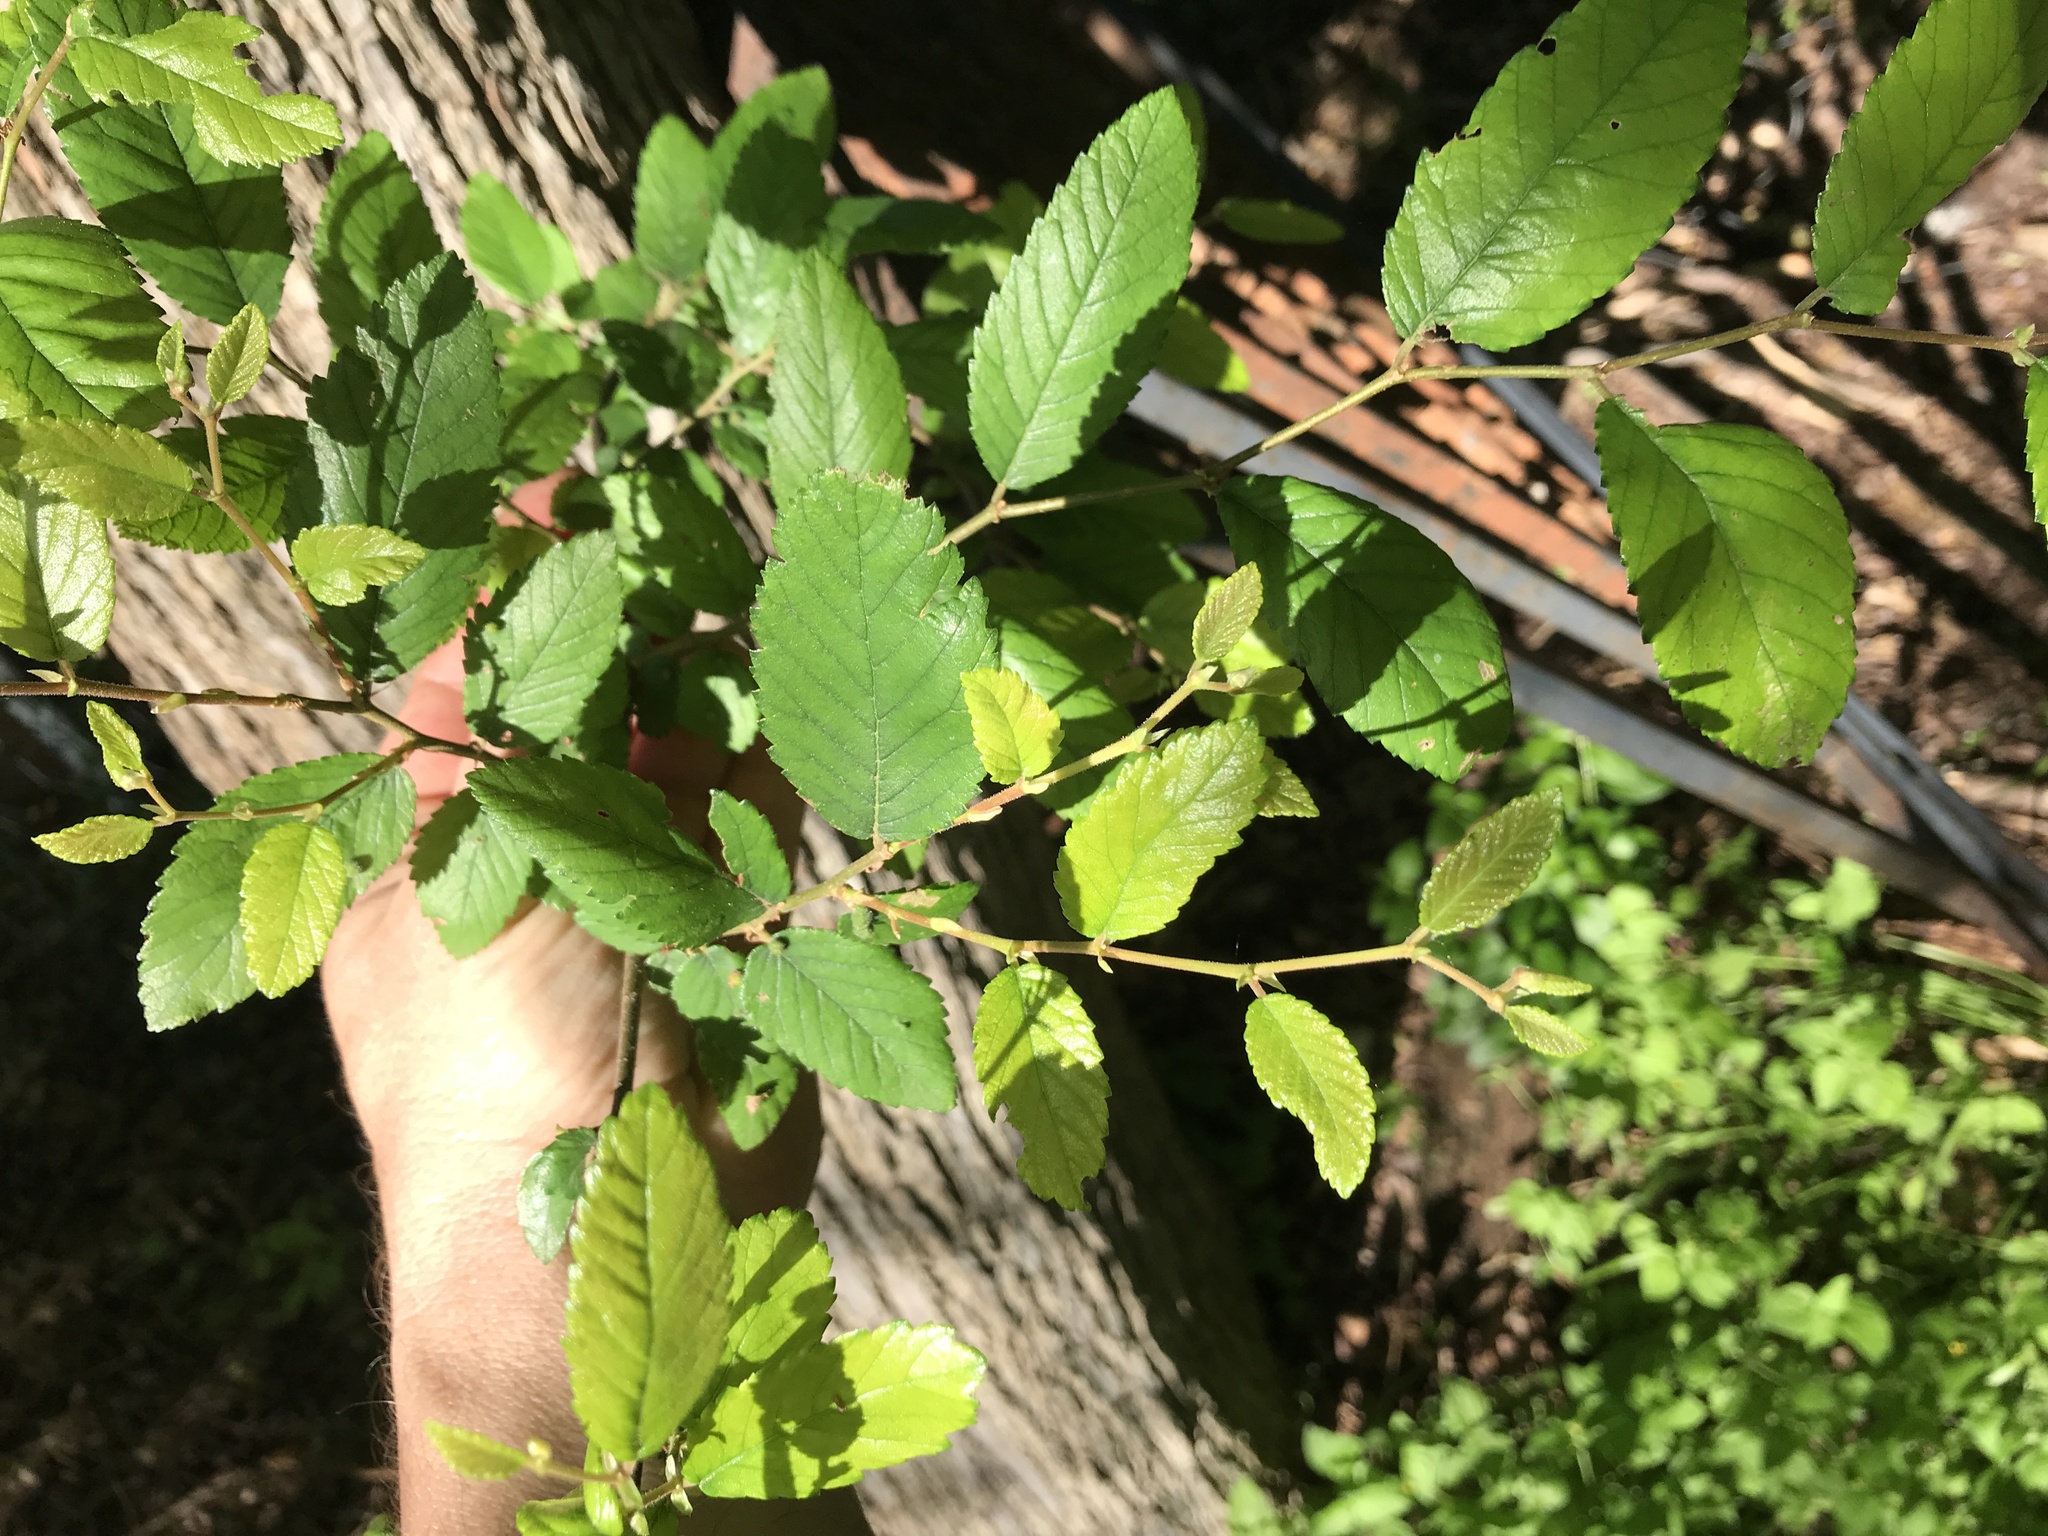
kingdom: Plantae
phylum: Tracheophyta
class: Magnoliopsida
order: Rosales
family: Ulmaceae
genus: Ulmus
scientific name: Ulmus crassifolia
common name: Basket elm
